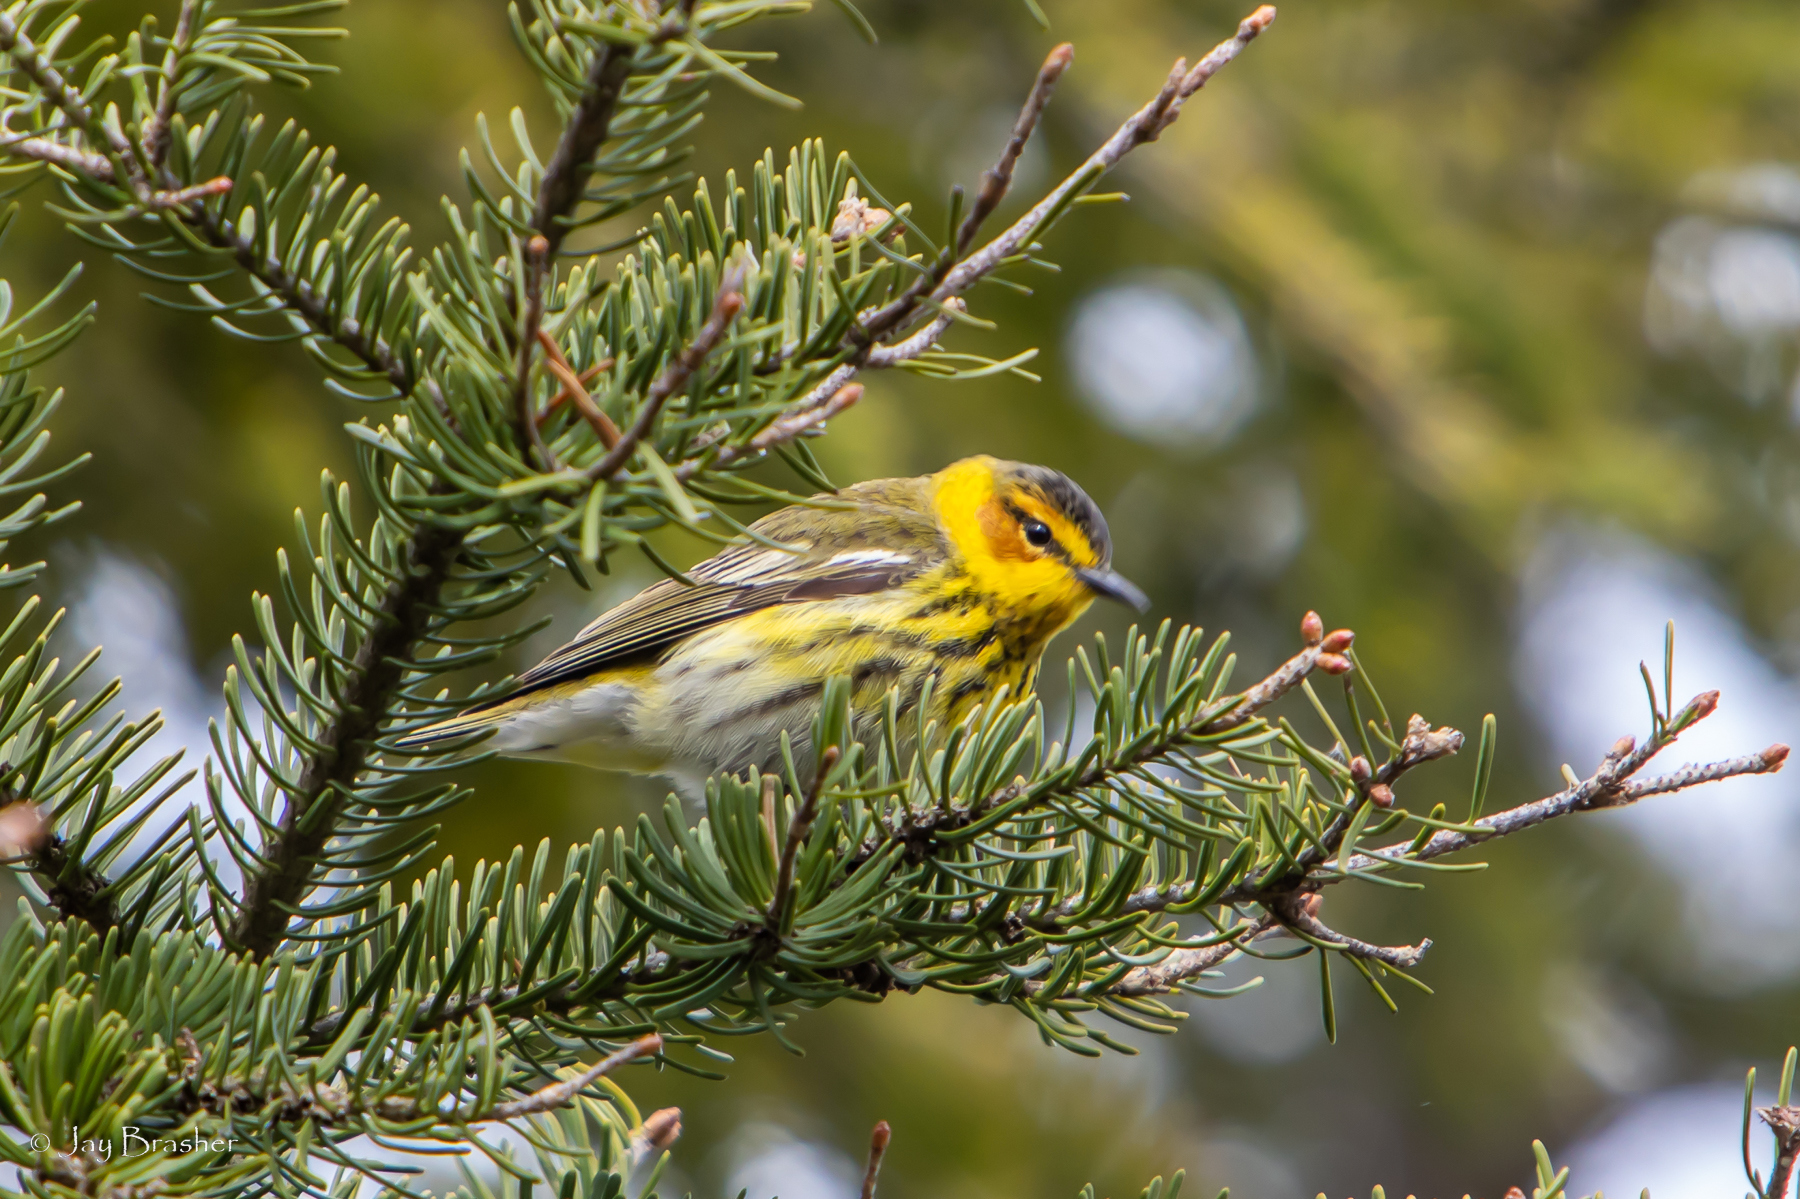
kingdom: Animalia
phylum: Chordata
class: Aves
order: Passeriformes
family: Parulidae
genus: Setophaga
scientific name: Setophaga tigrina
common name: Cape may warbler
